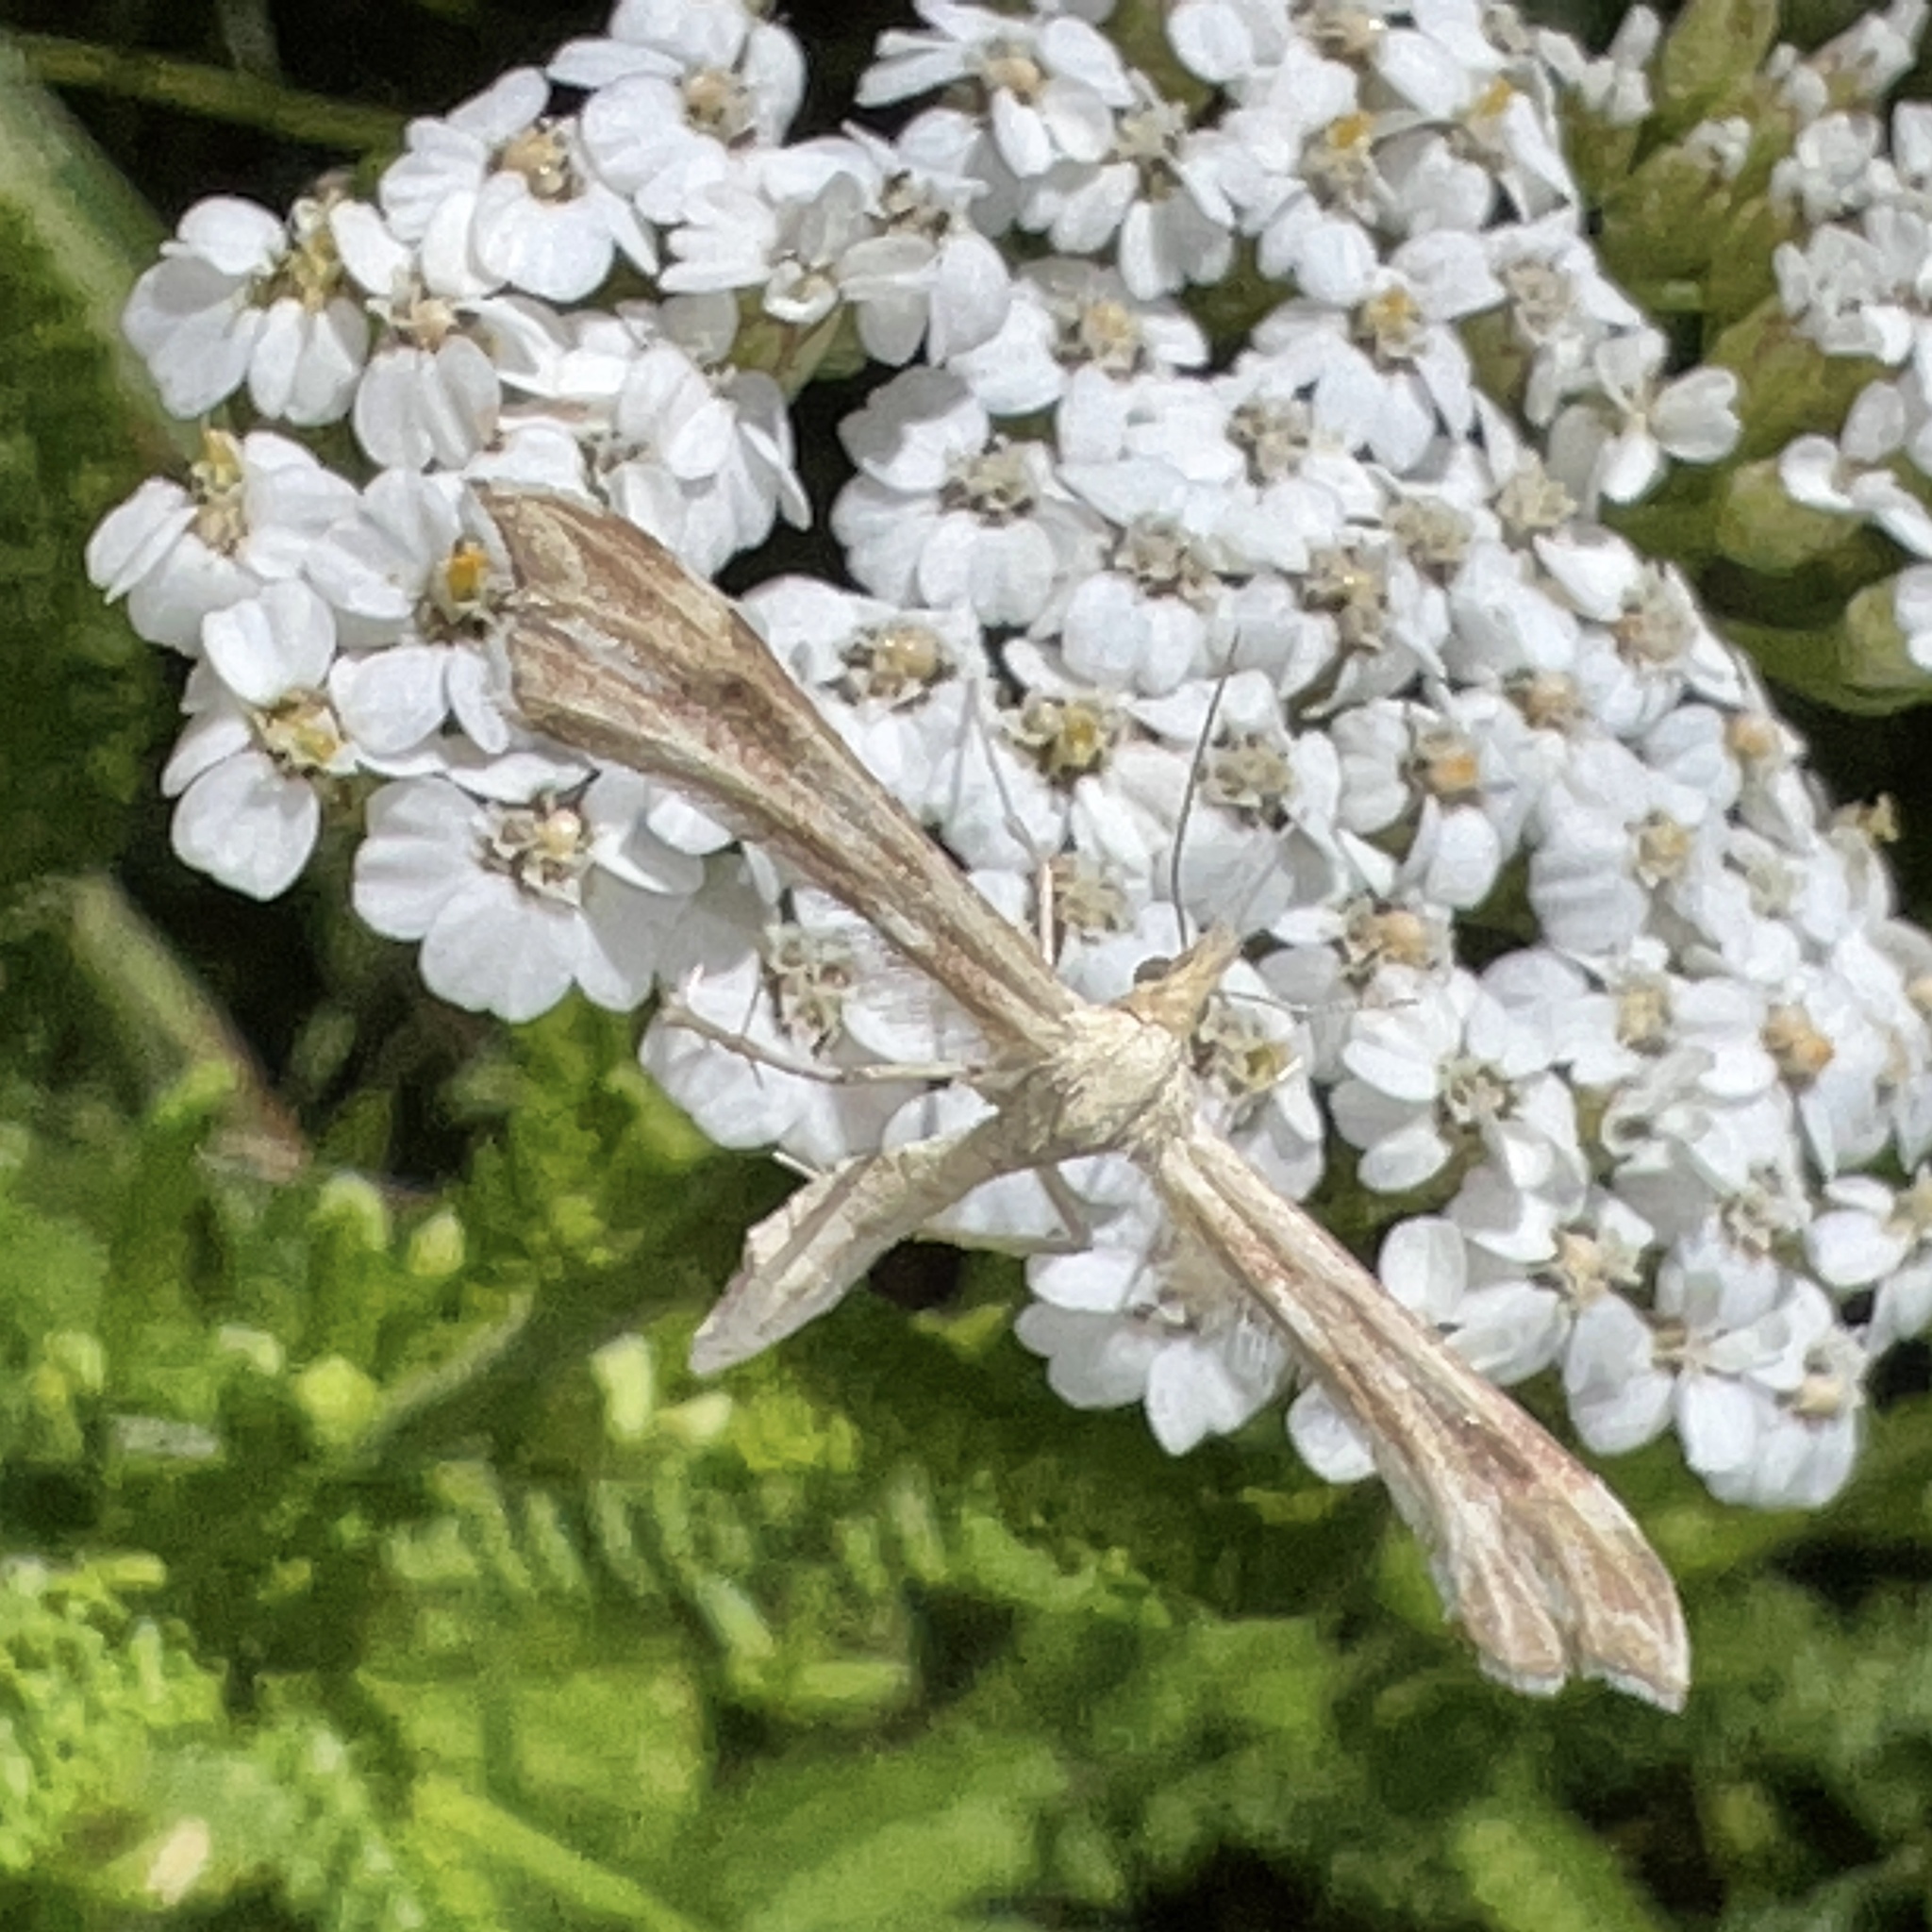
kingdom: Animalia
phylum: Arthropoda
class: Insecta
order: Lepidoptera
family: Pterophoridae
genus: Gillmeria
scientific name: Gillmeria pallidactyla
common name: Yarrow plume
